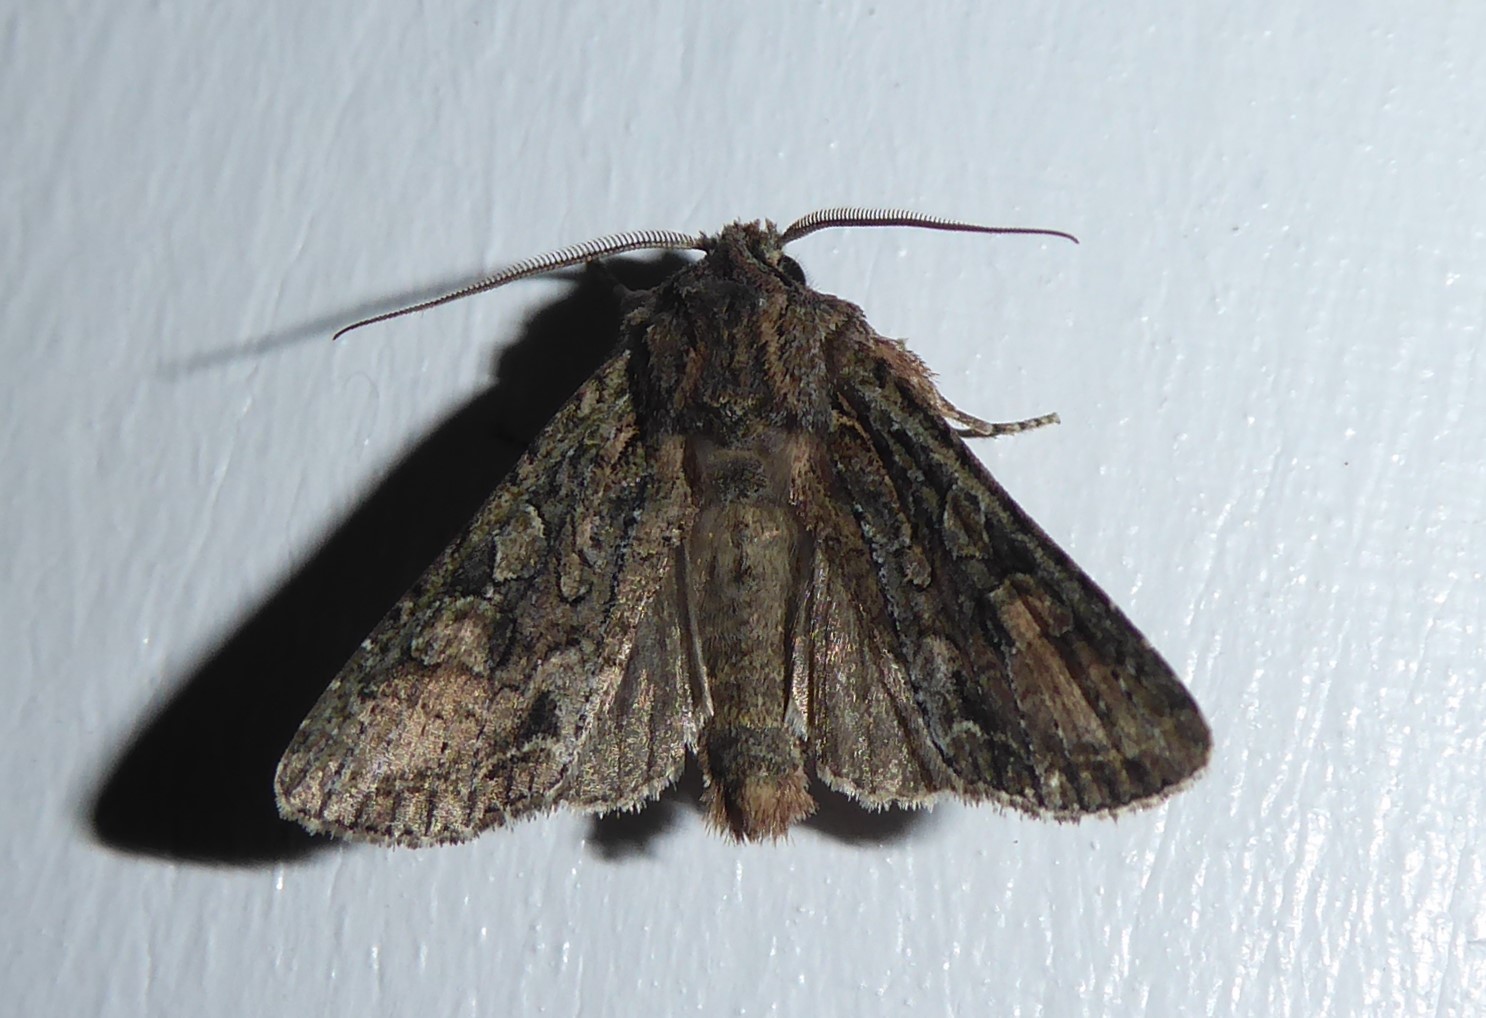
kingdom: Animalia
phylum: Arthropoda
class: Insecta
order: Lepidoptera
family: Noctuidae
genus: Ichneutica
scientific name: Ichneutica mutans
